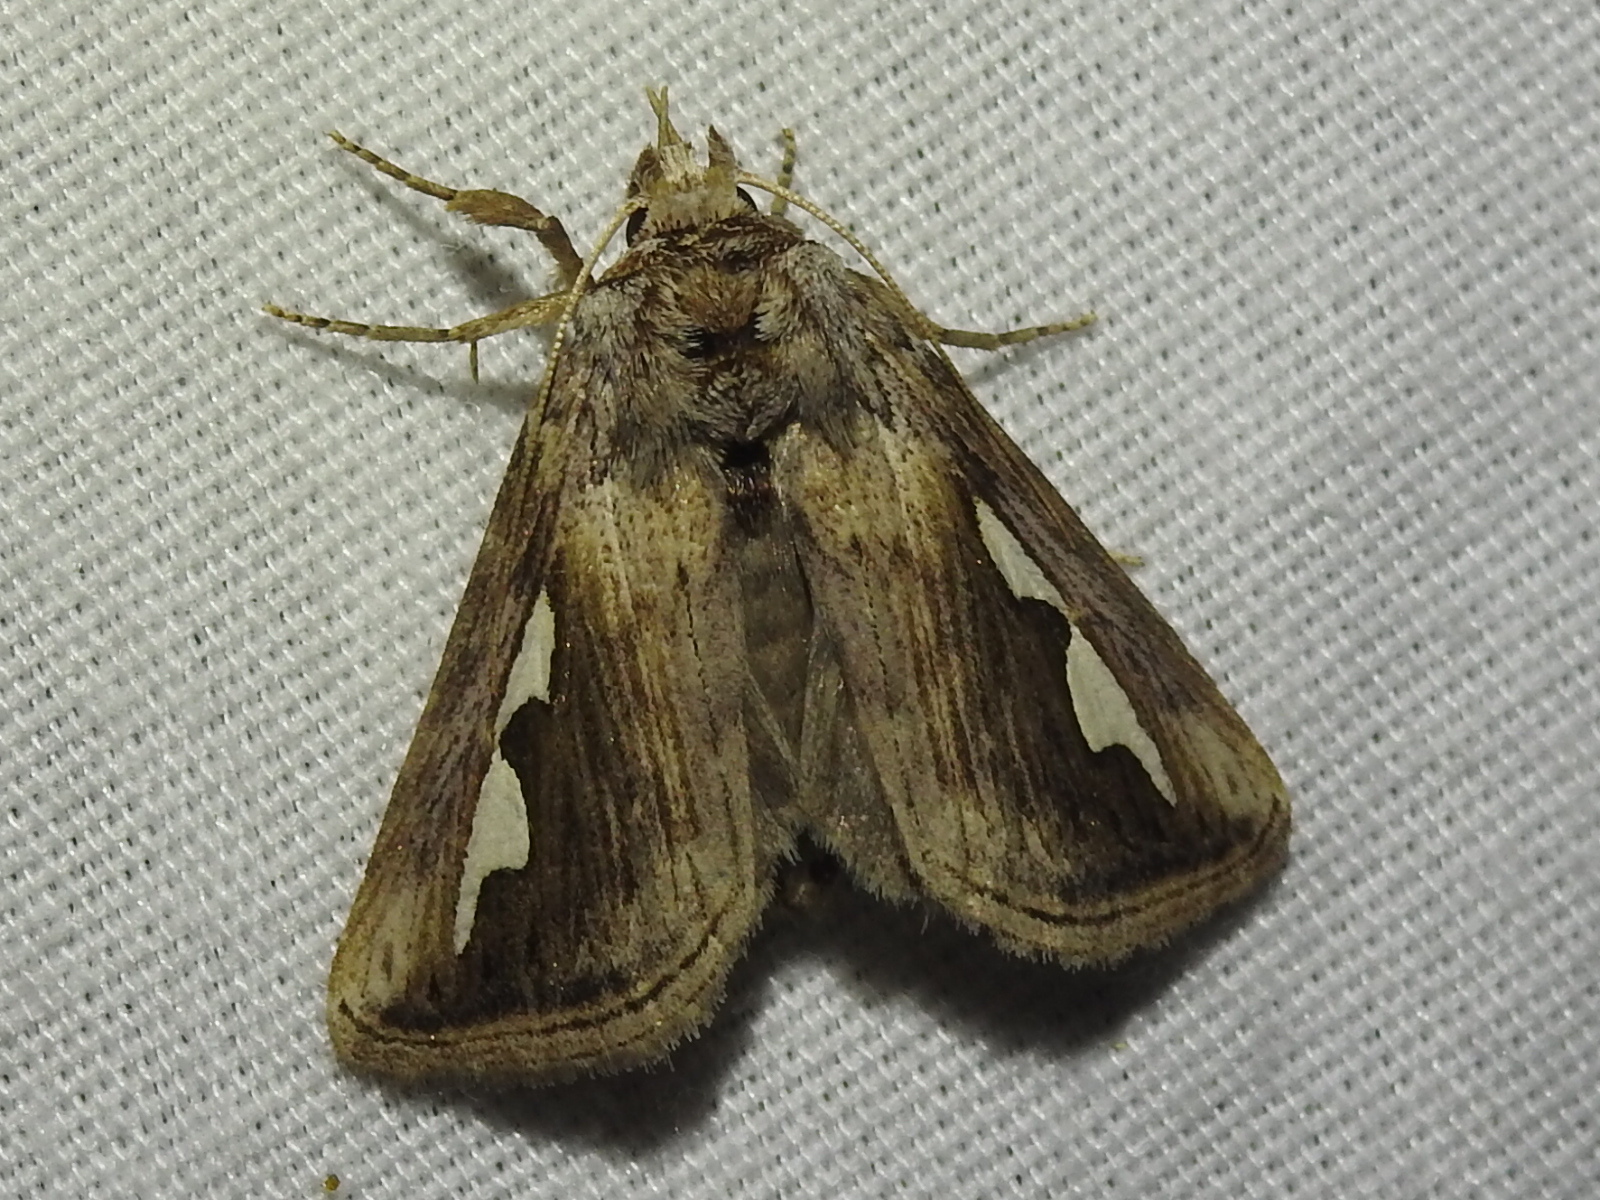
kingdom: Animalia
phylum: Arthropoda
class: Insecta
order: Lepidoptera
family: Notodontidae
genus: Didugua
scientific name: Didugua argentilinea
